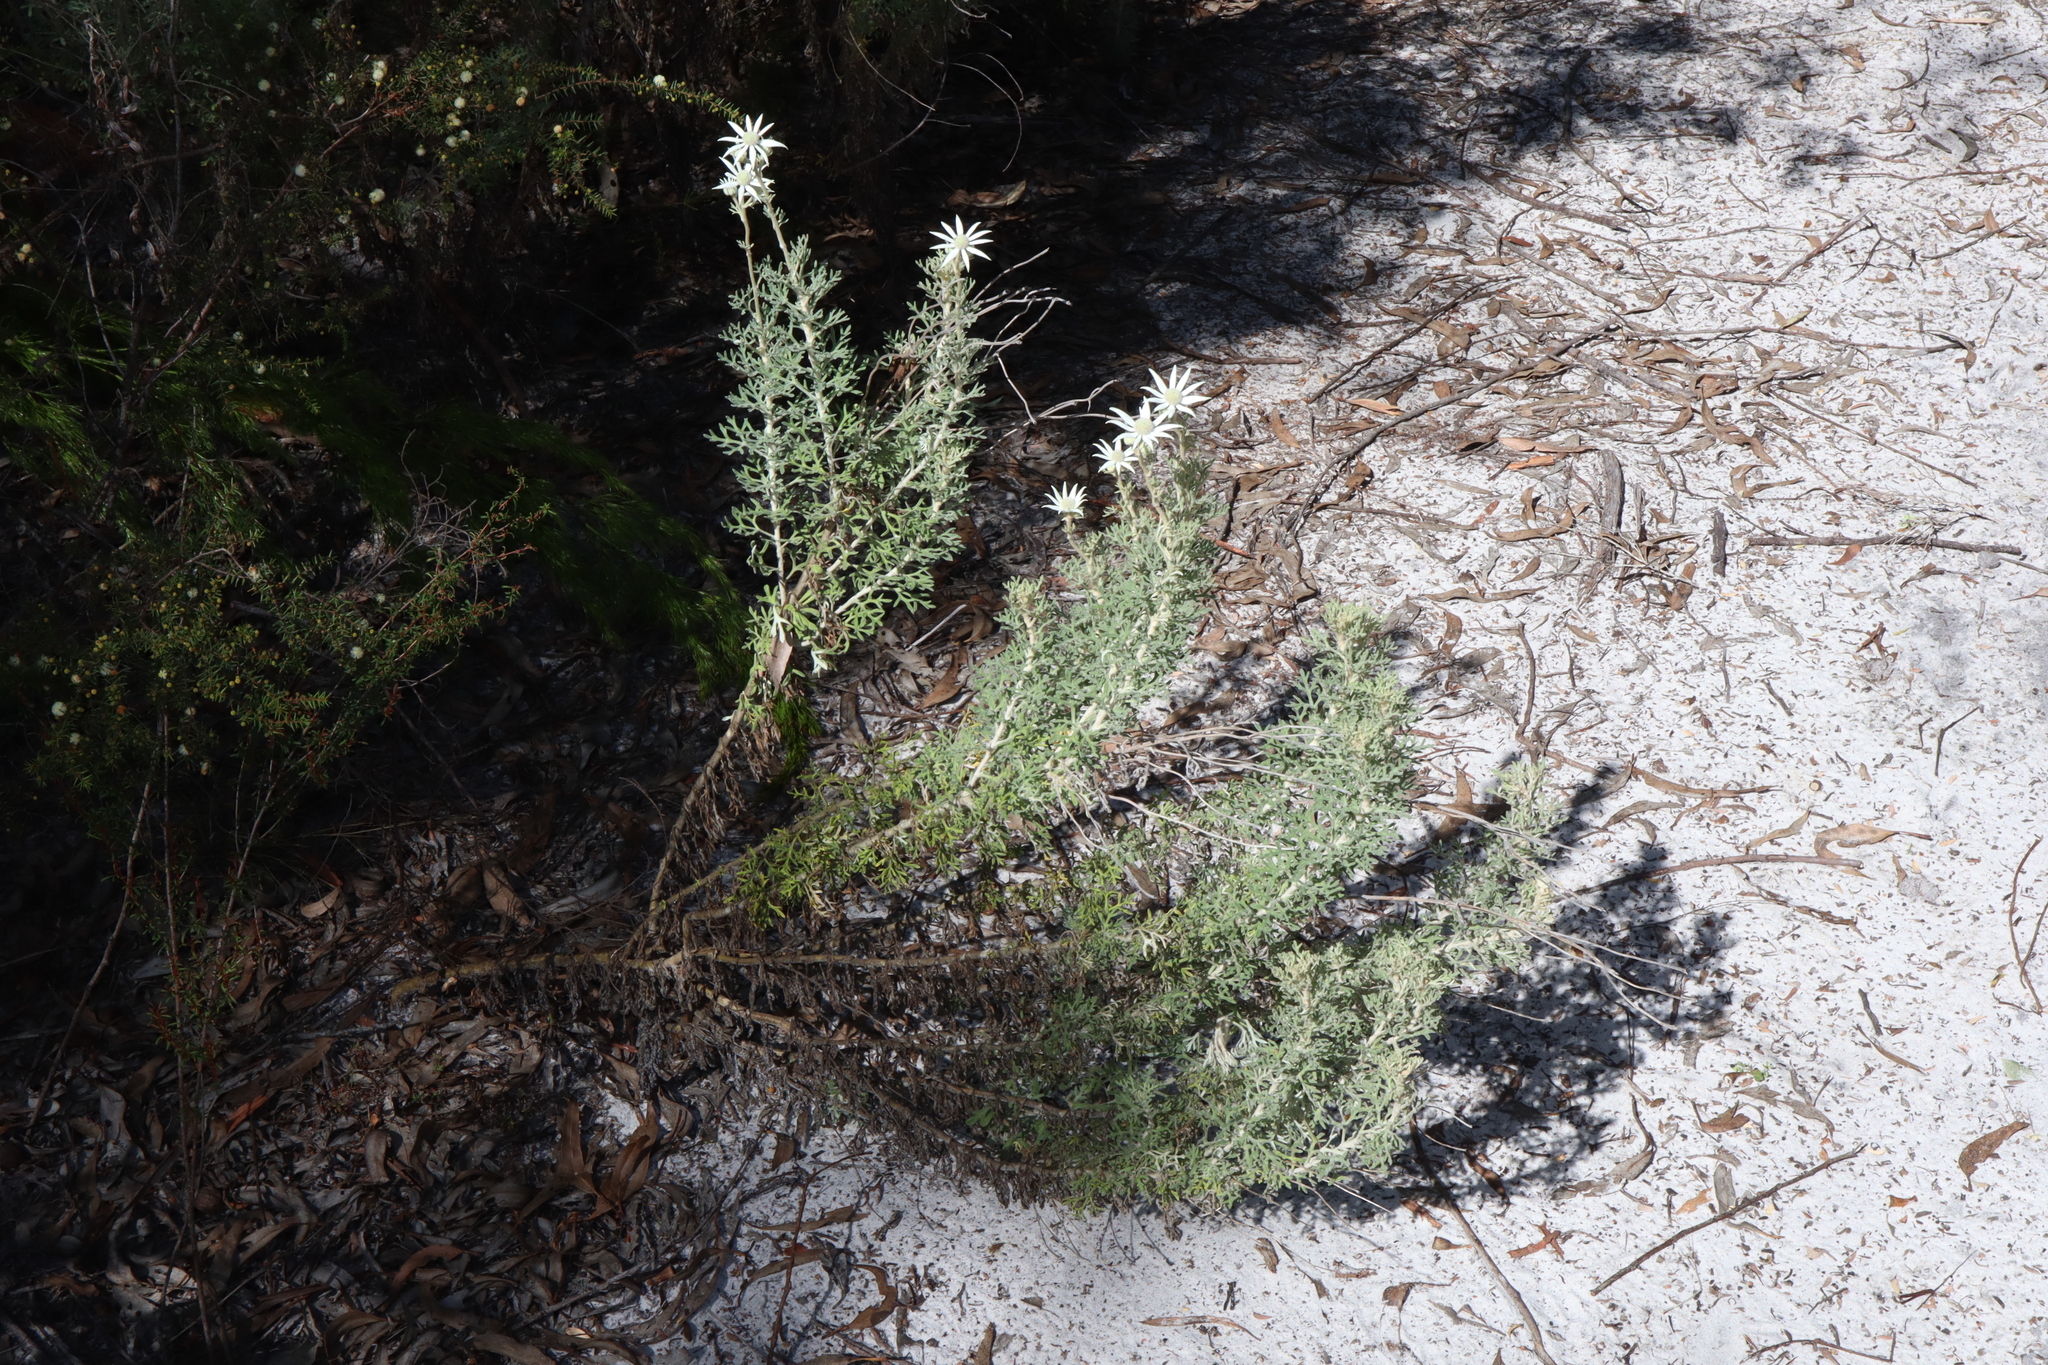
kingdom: Plantae
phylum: Tracheophyta
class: Magnoliopsida
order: Apiales
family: Apiaceae
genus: Actinotus
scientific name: Actinotus helianthi
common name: Flannel-flower
